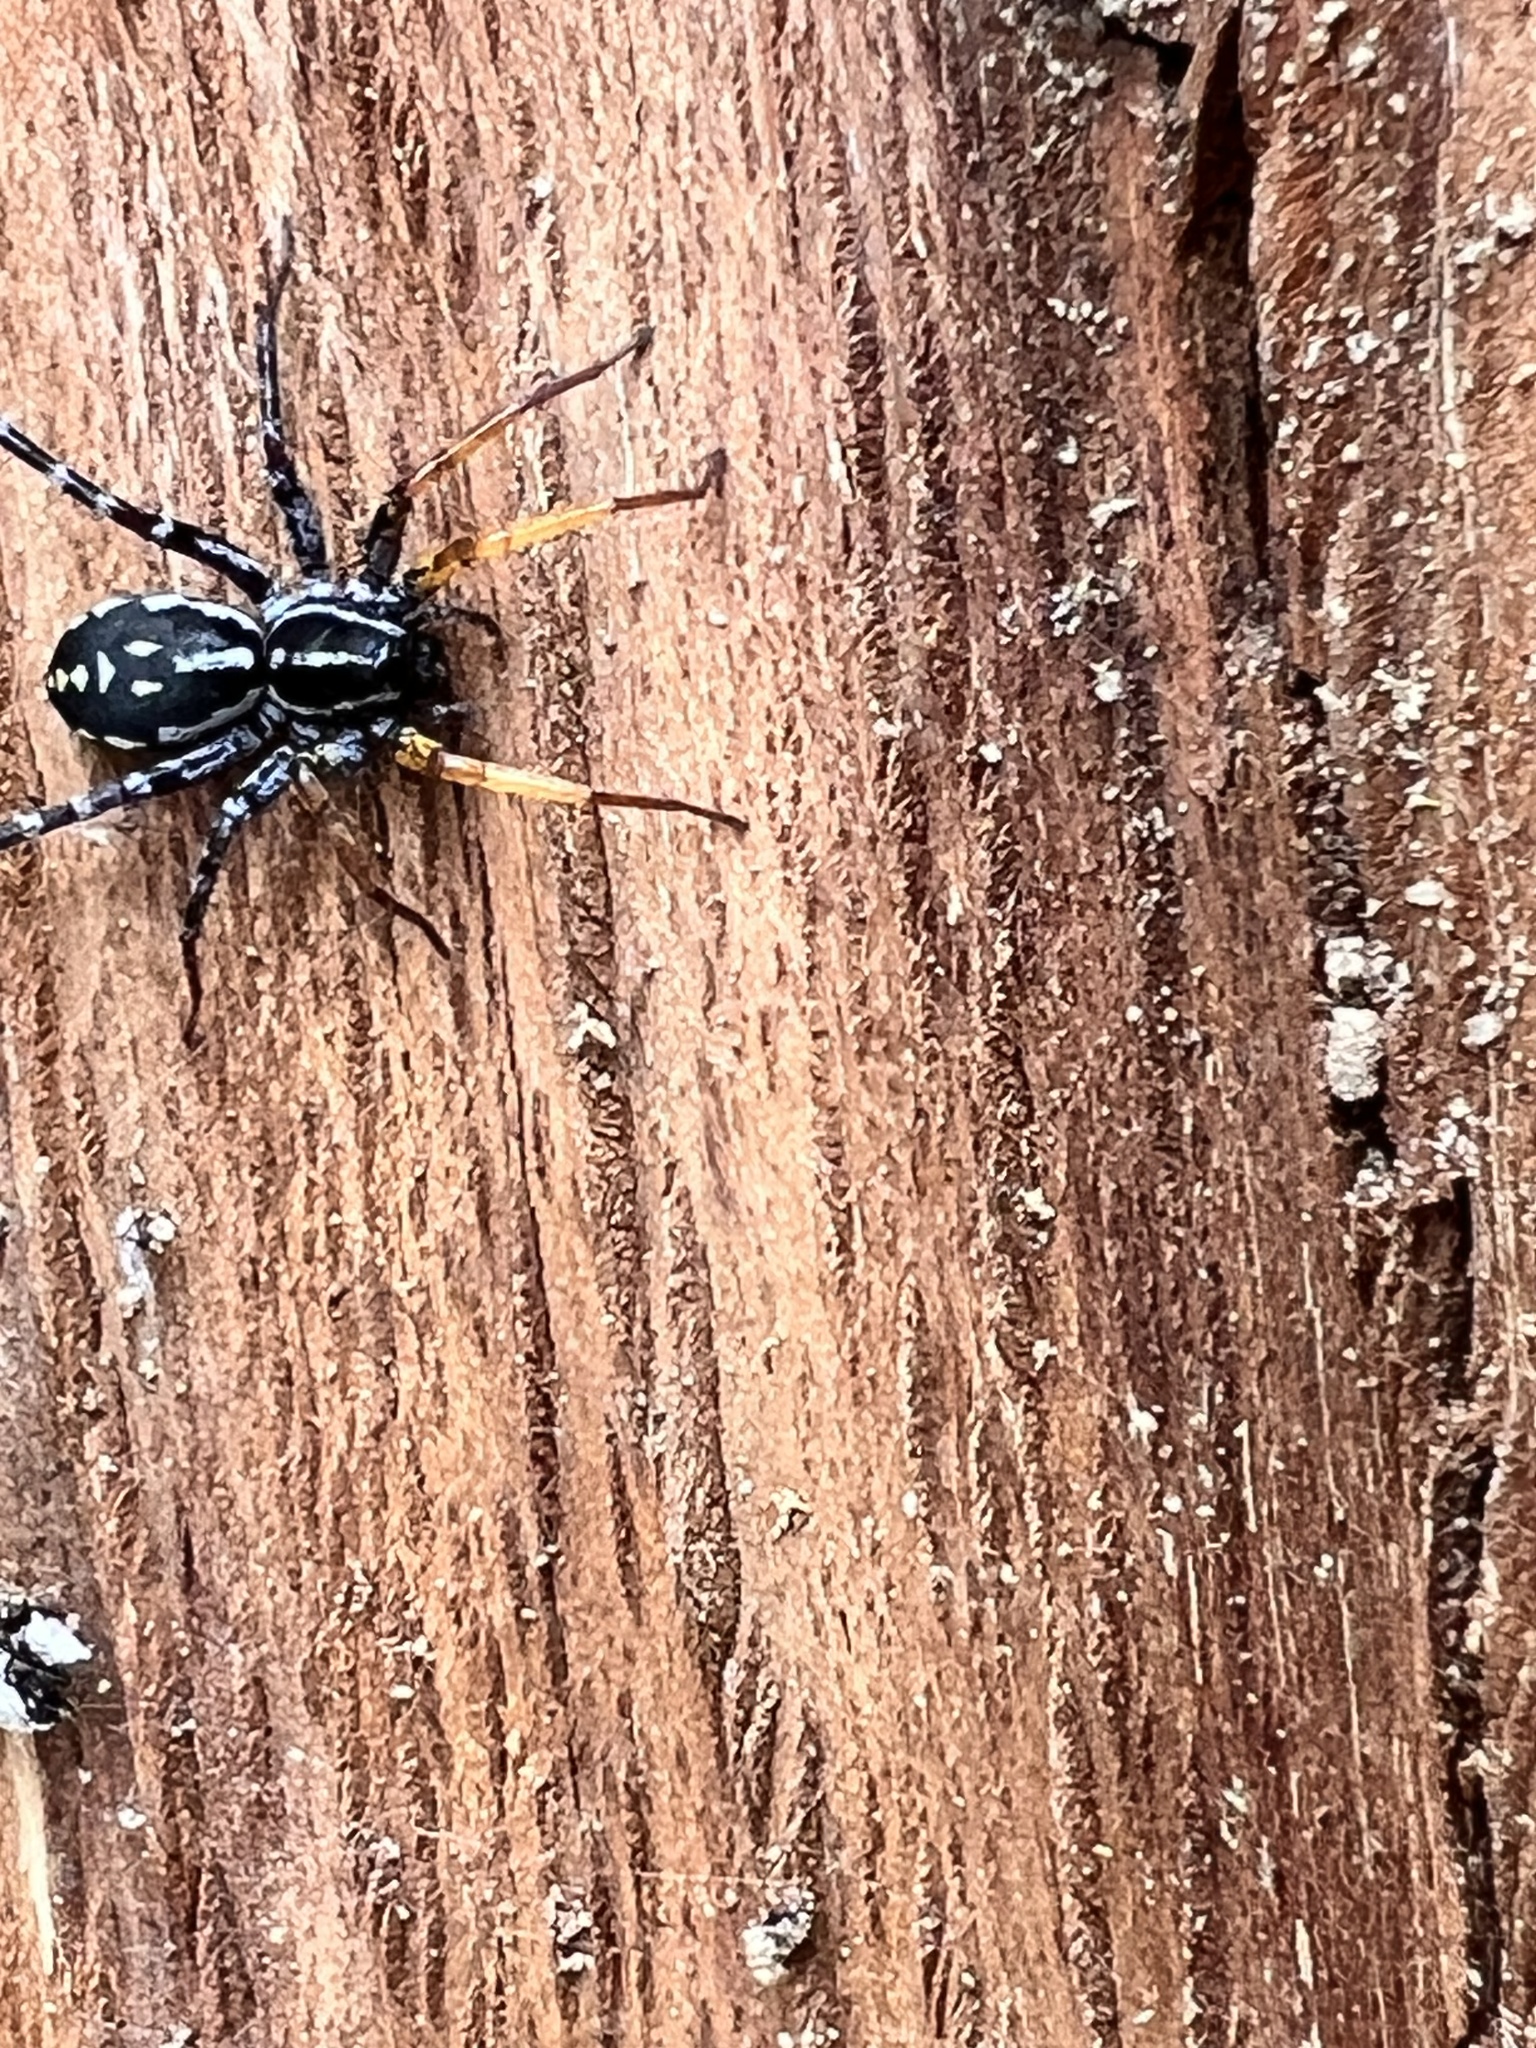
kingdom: Animalia
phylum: Arthropoda
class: Arachnida
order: Araneae
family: Corinnidae
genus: Nyssus
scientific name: Nyssus coloripes
